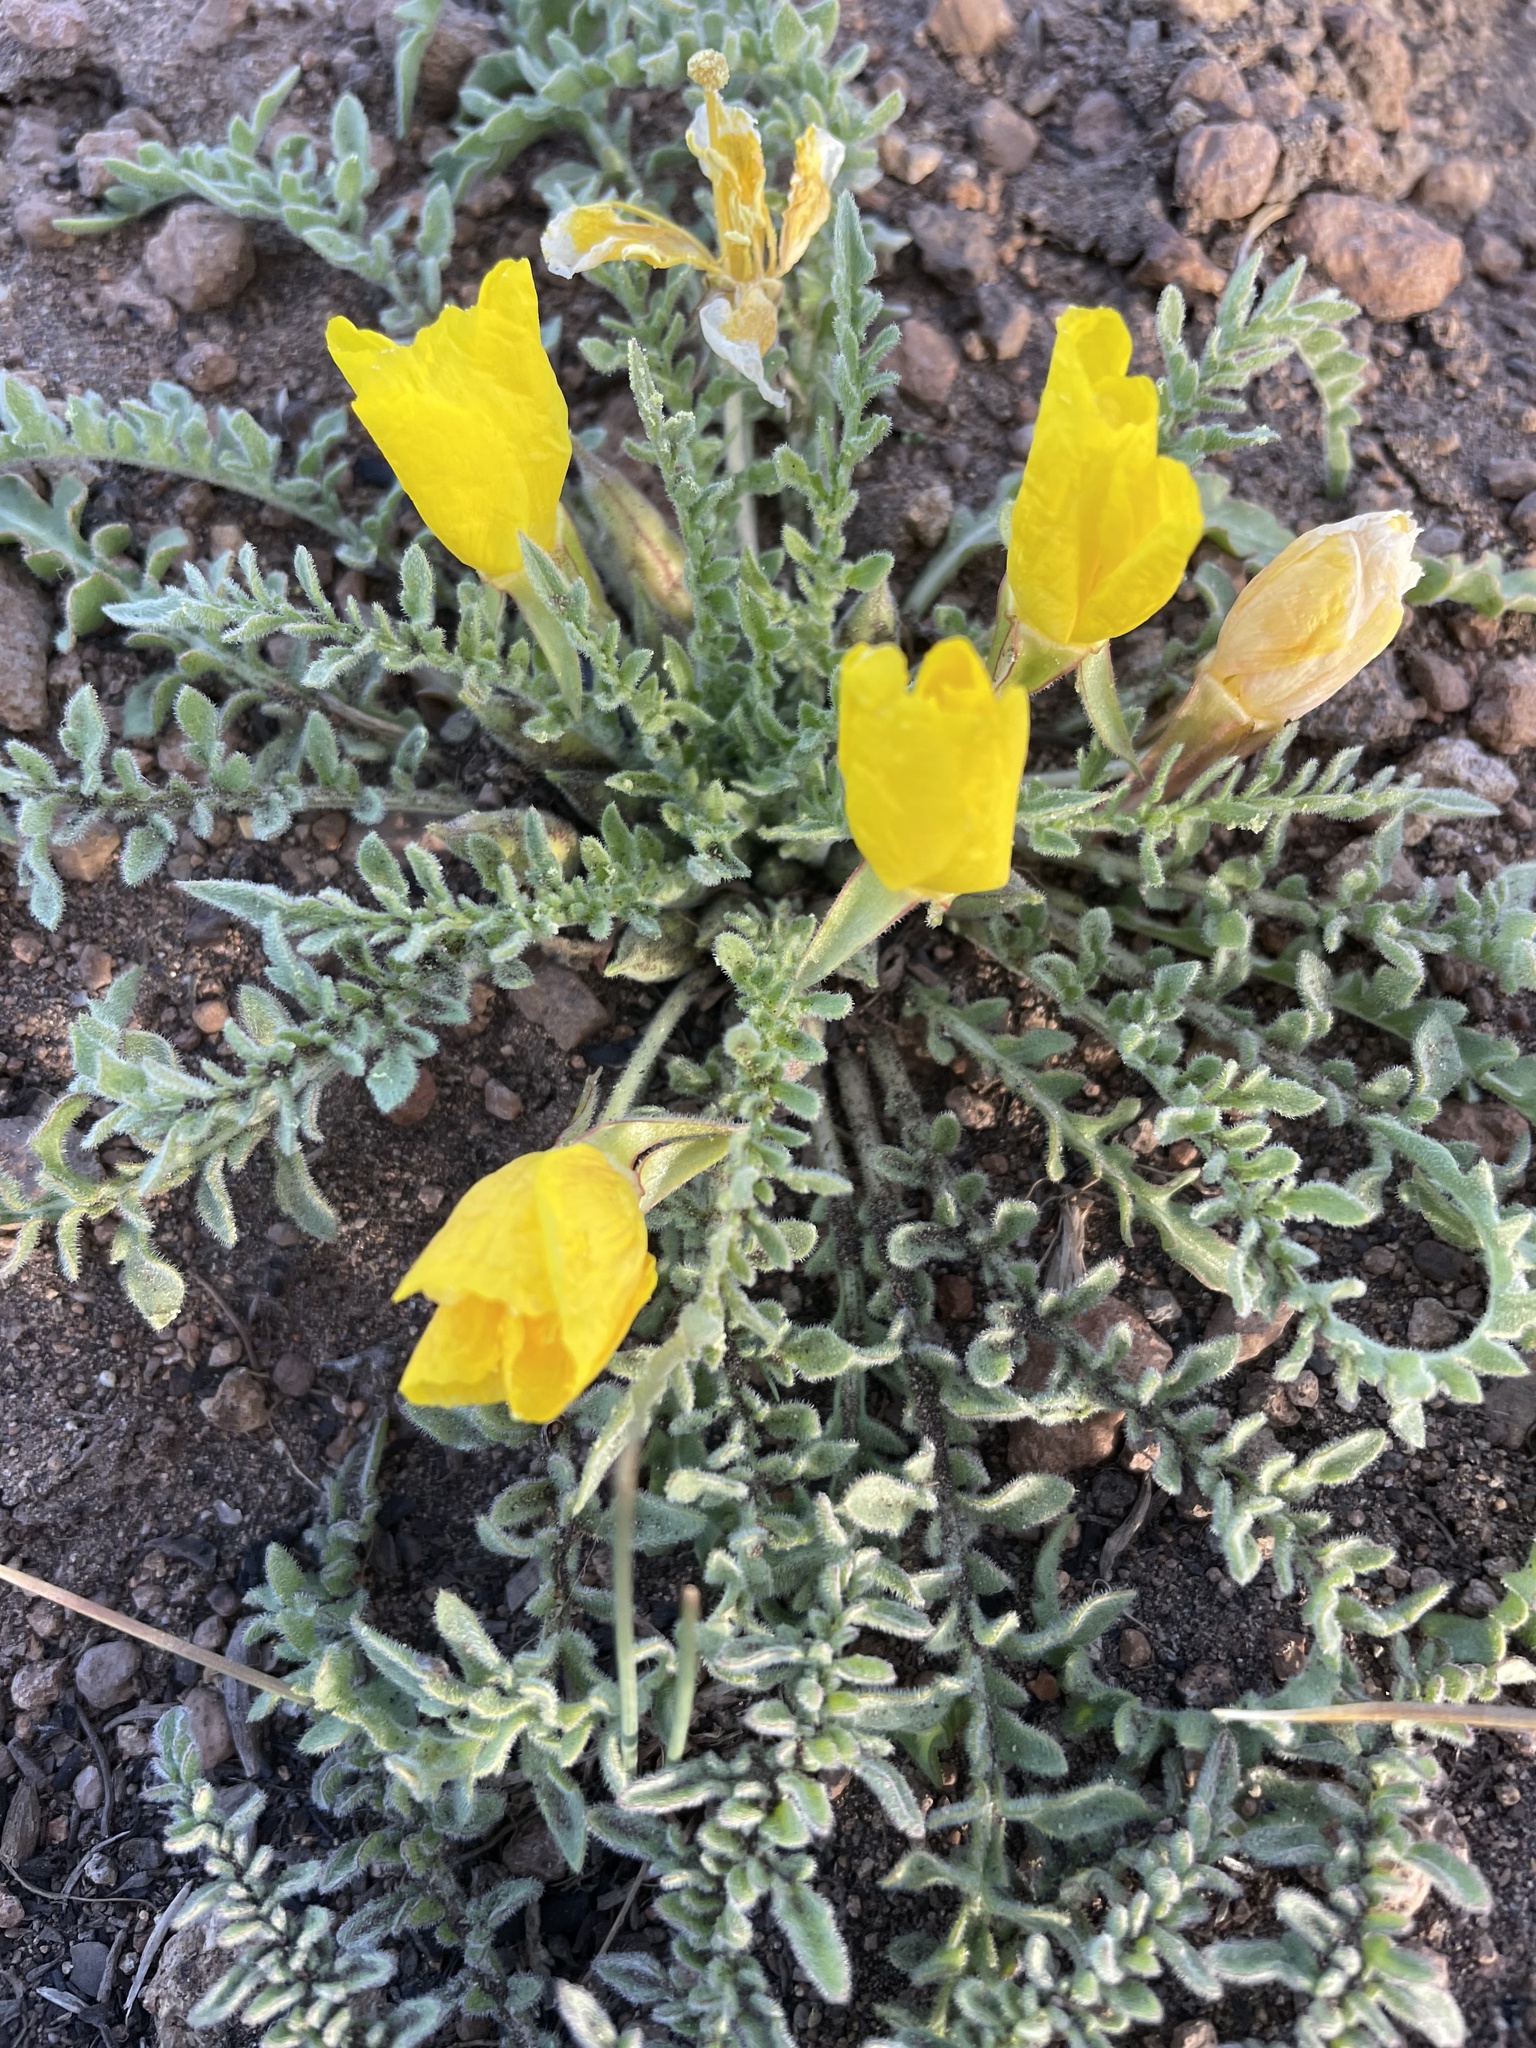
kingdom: Plantae
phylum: Tracheophyta
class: Magnoliopsida
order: Myrtales
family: Onagraceae
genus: Taraxia
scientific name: Taraxia tanacetifolia
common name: Tansyleaf evening primrose
